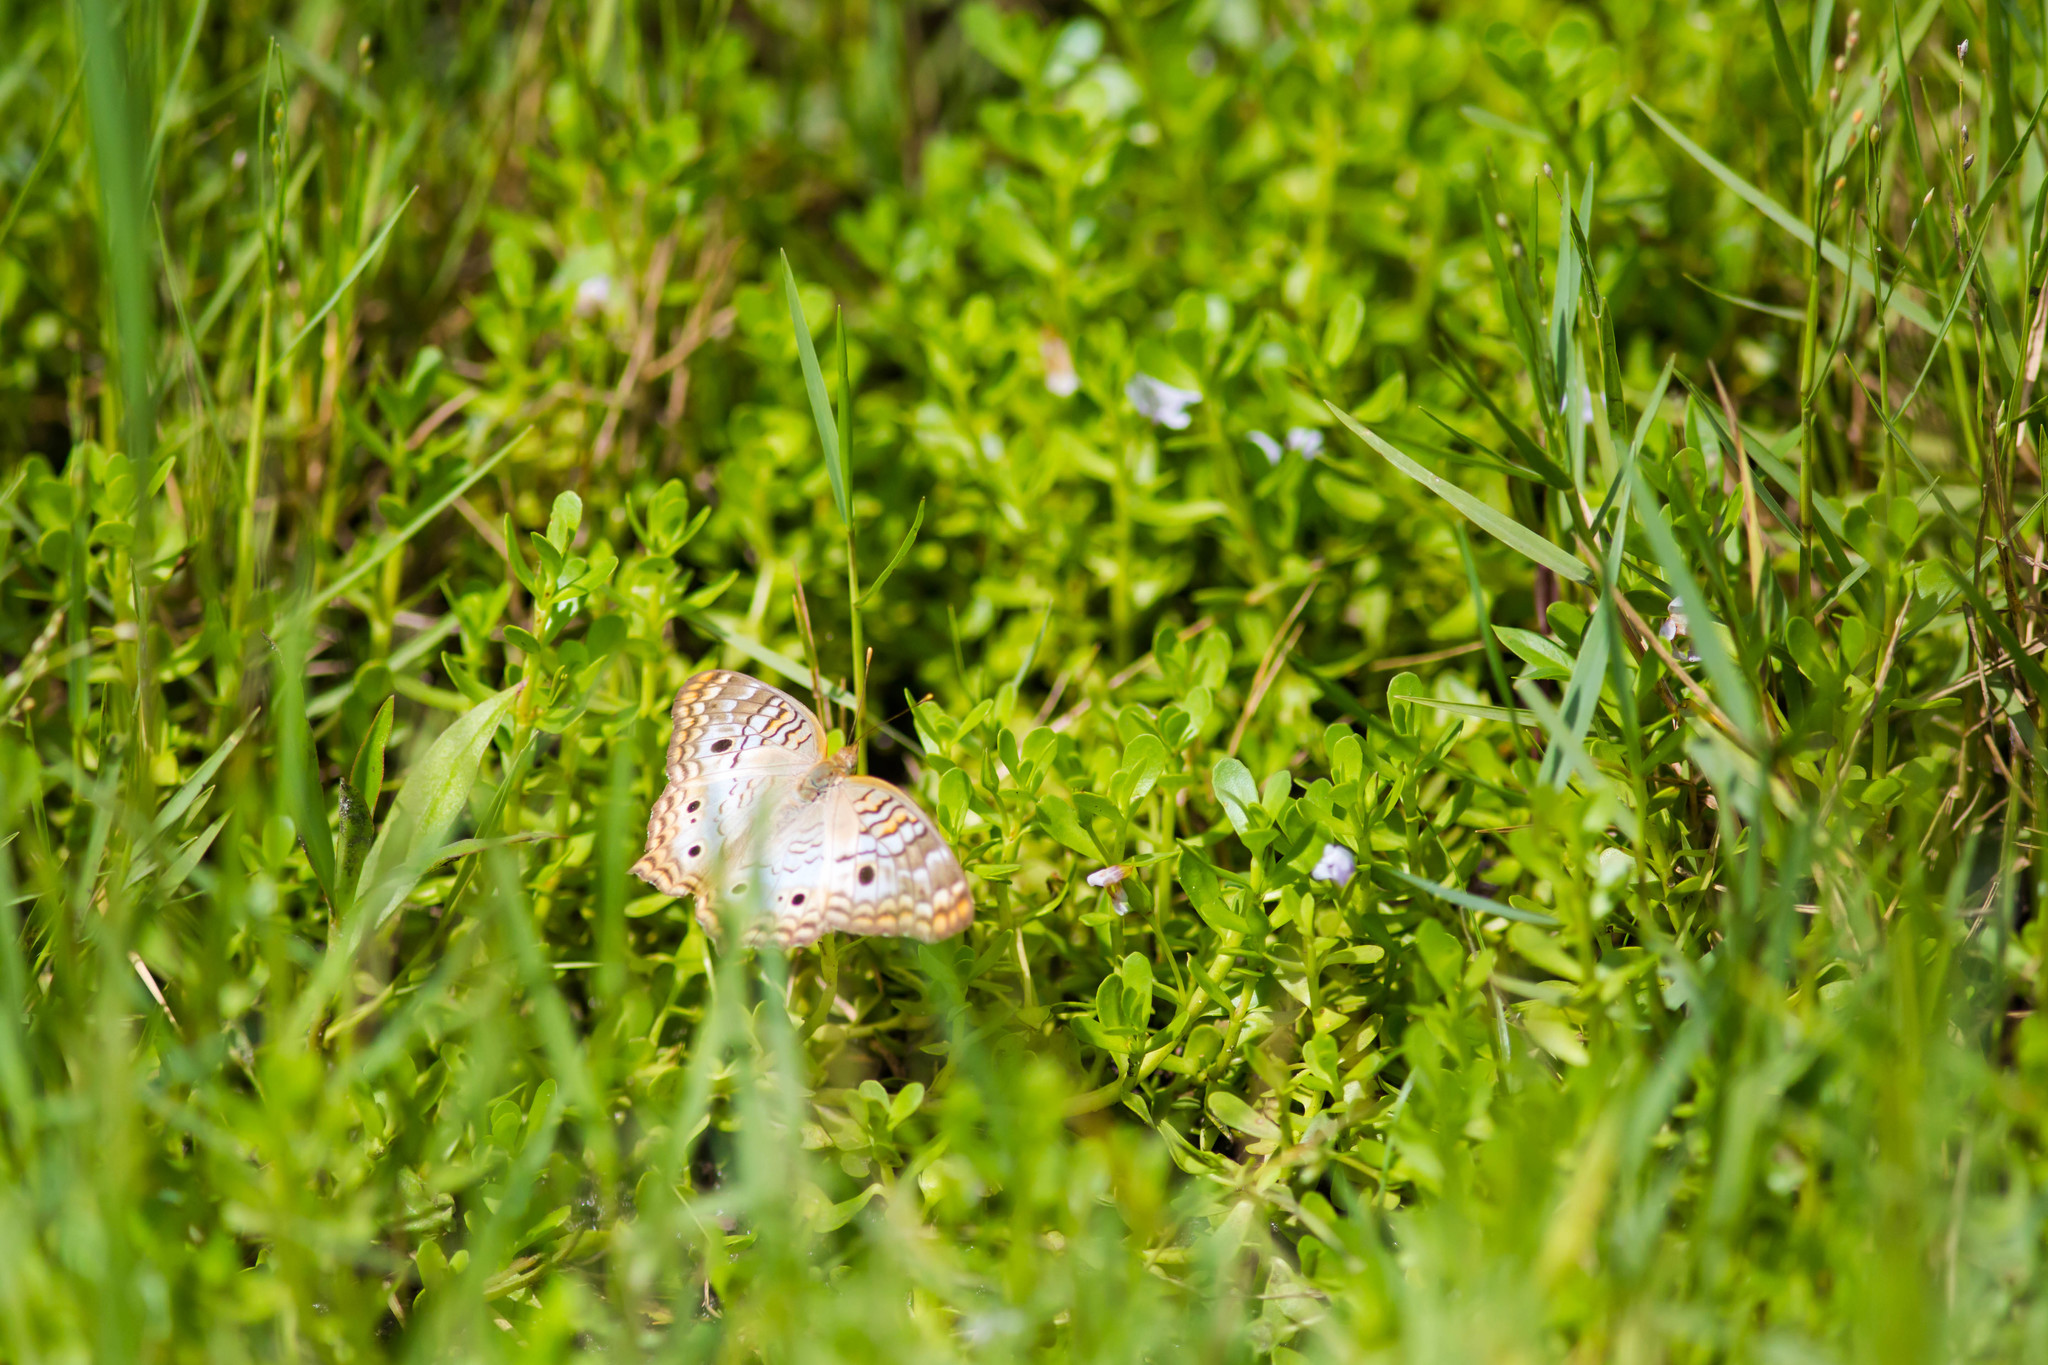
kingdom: Animalia
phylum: Arthropoda
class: Insecta
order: Lepidoptera
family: Nymphalidae
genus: Anartia
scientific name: Anartia jatrophae
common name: White peacock
